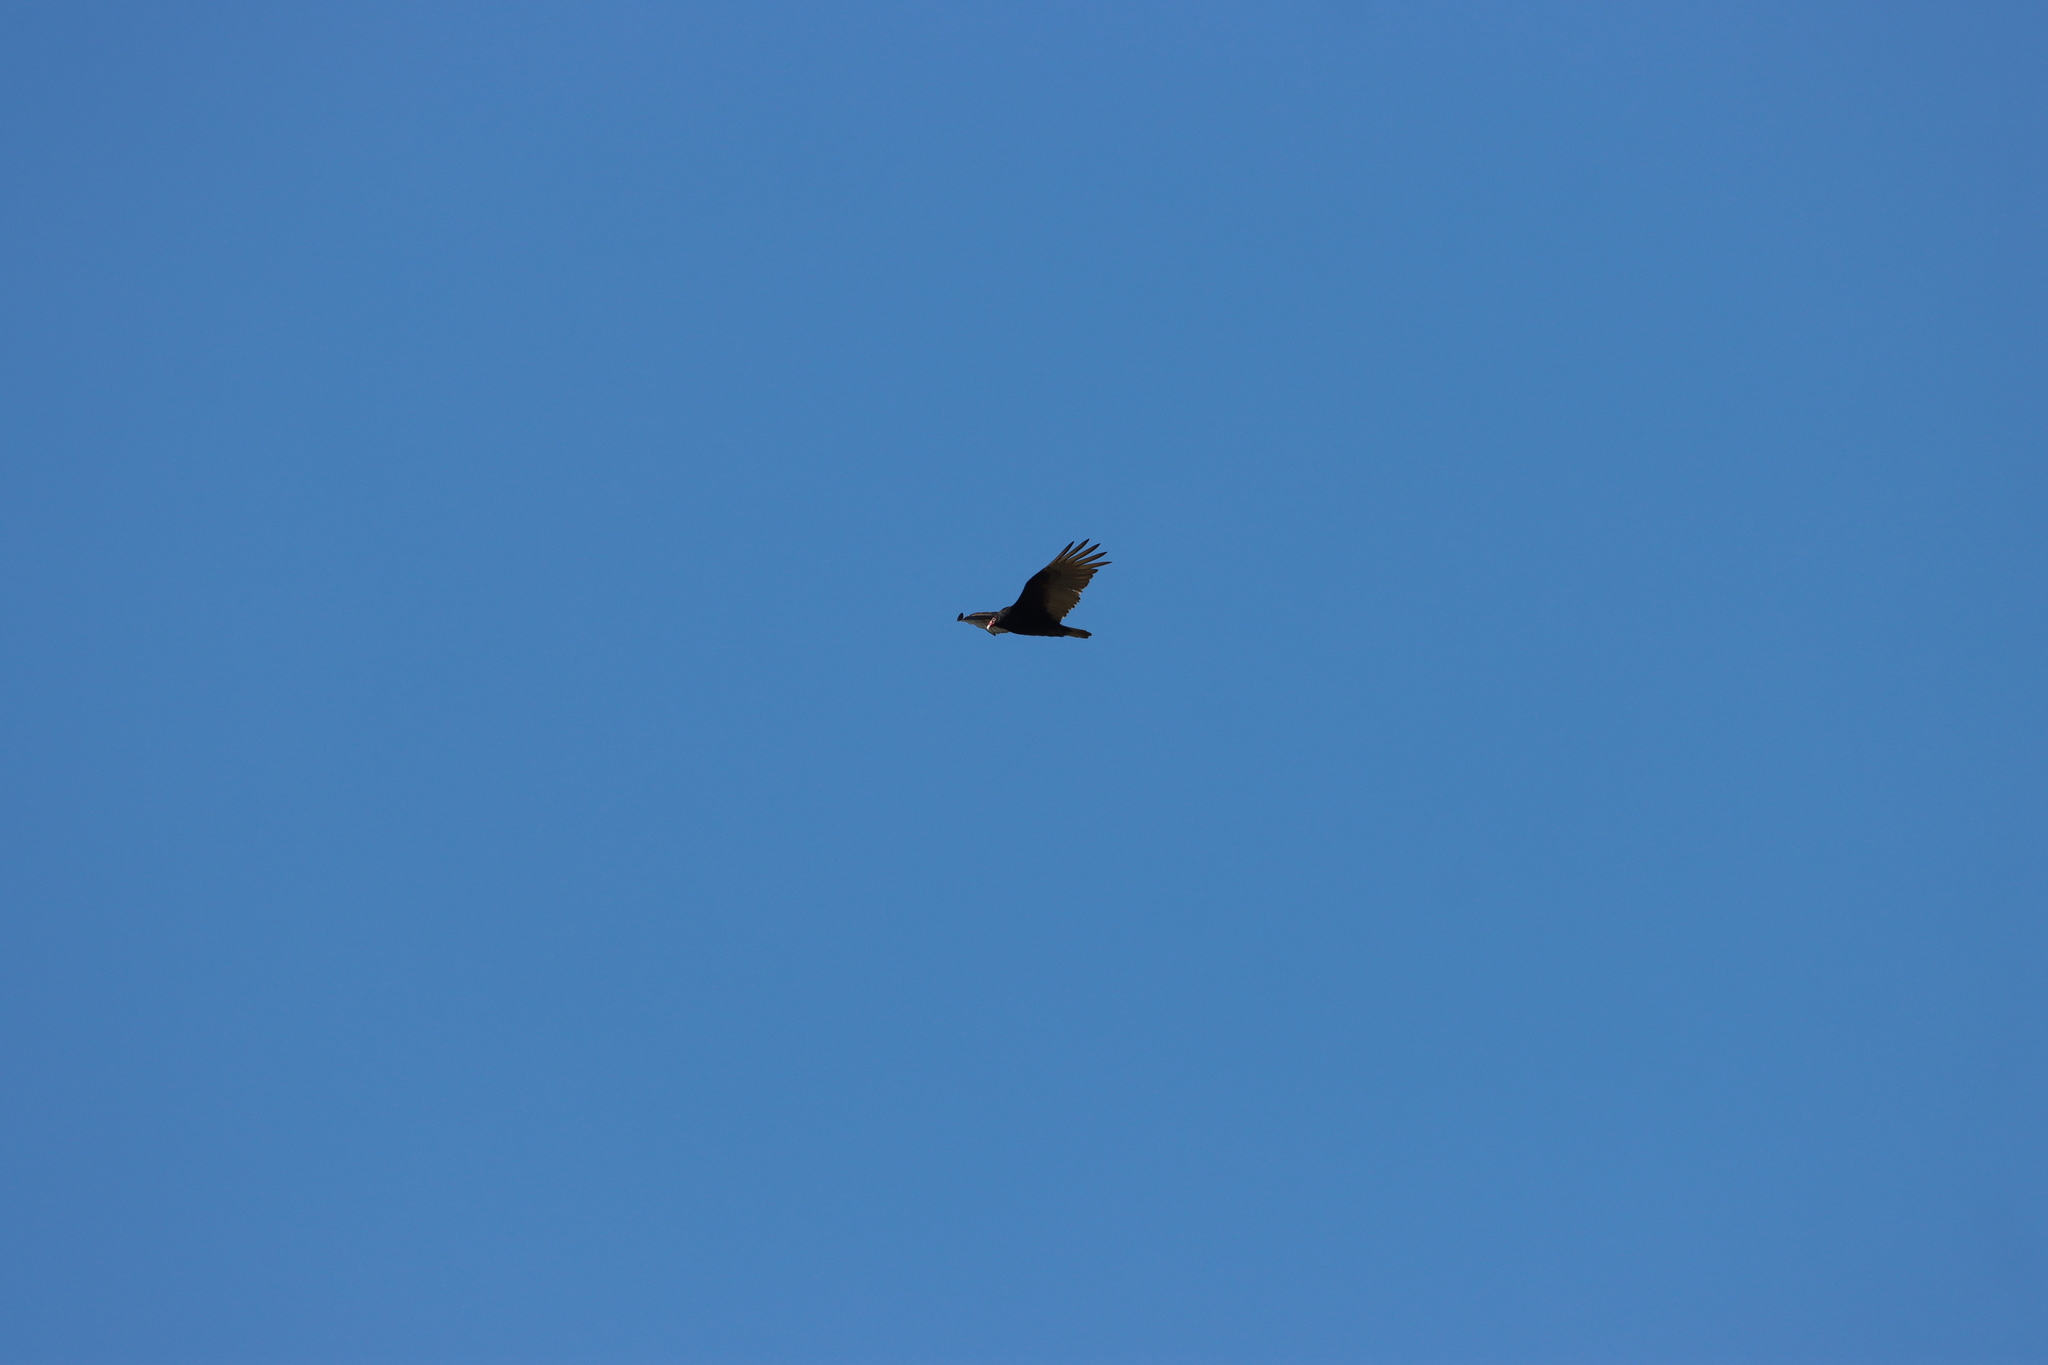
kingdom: Animalia
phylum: Chordata
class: Aves
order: Accipitriformes
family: Cathartidae
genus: Cathartes
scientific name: Cathartes aura
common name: Turkey vulture
